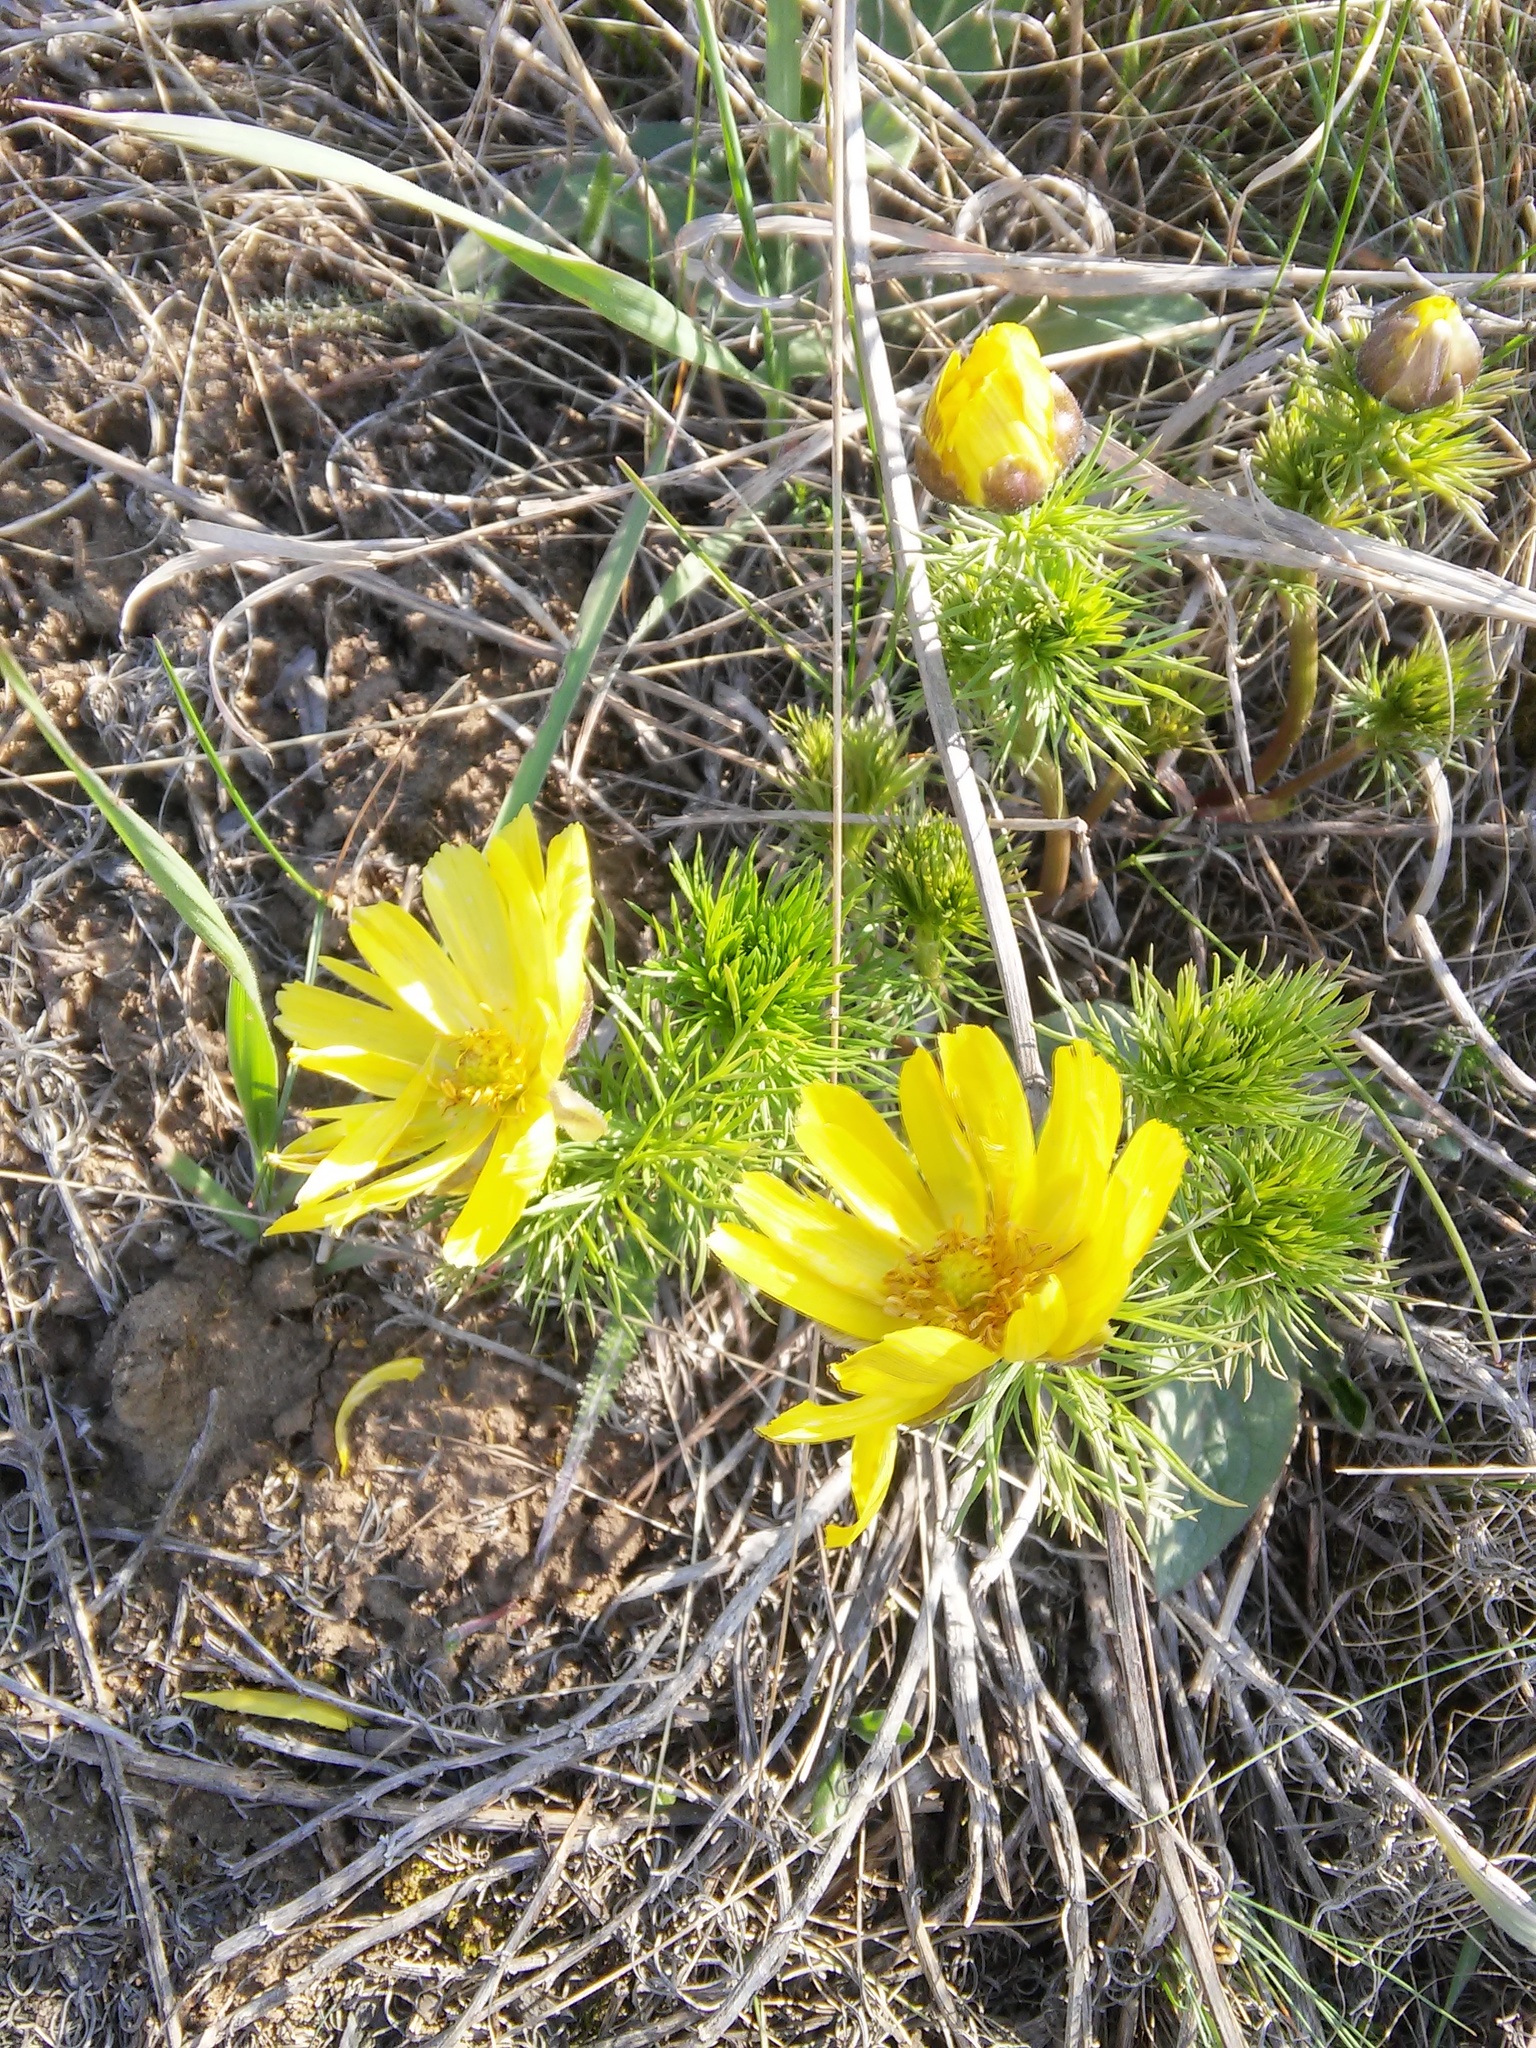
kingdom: Plantae
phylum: Tracheophyta
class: Magnoliopsida
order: Ranunculales
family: Ranunculaceae
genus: Adonis
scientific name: Adonis vernalis
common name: Yellow pheasants-eye
